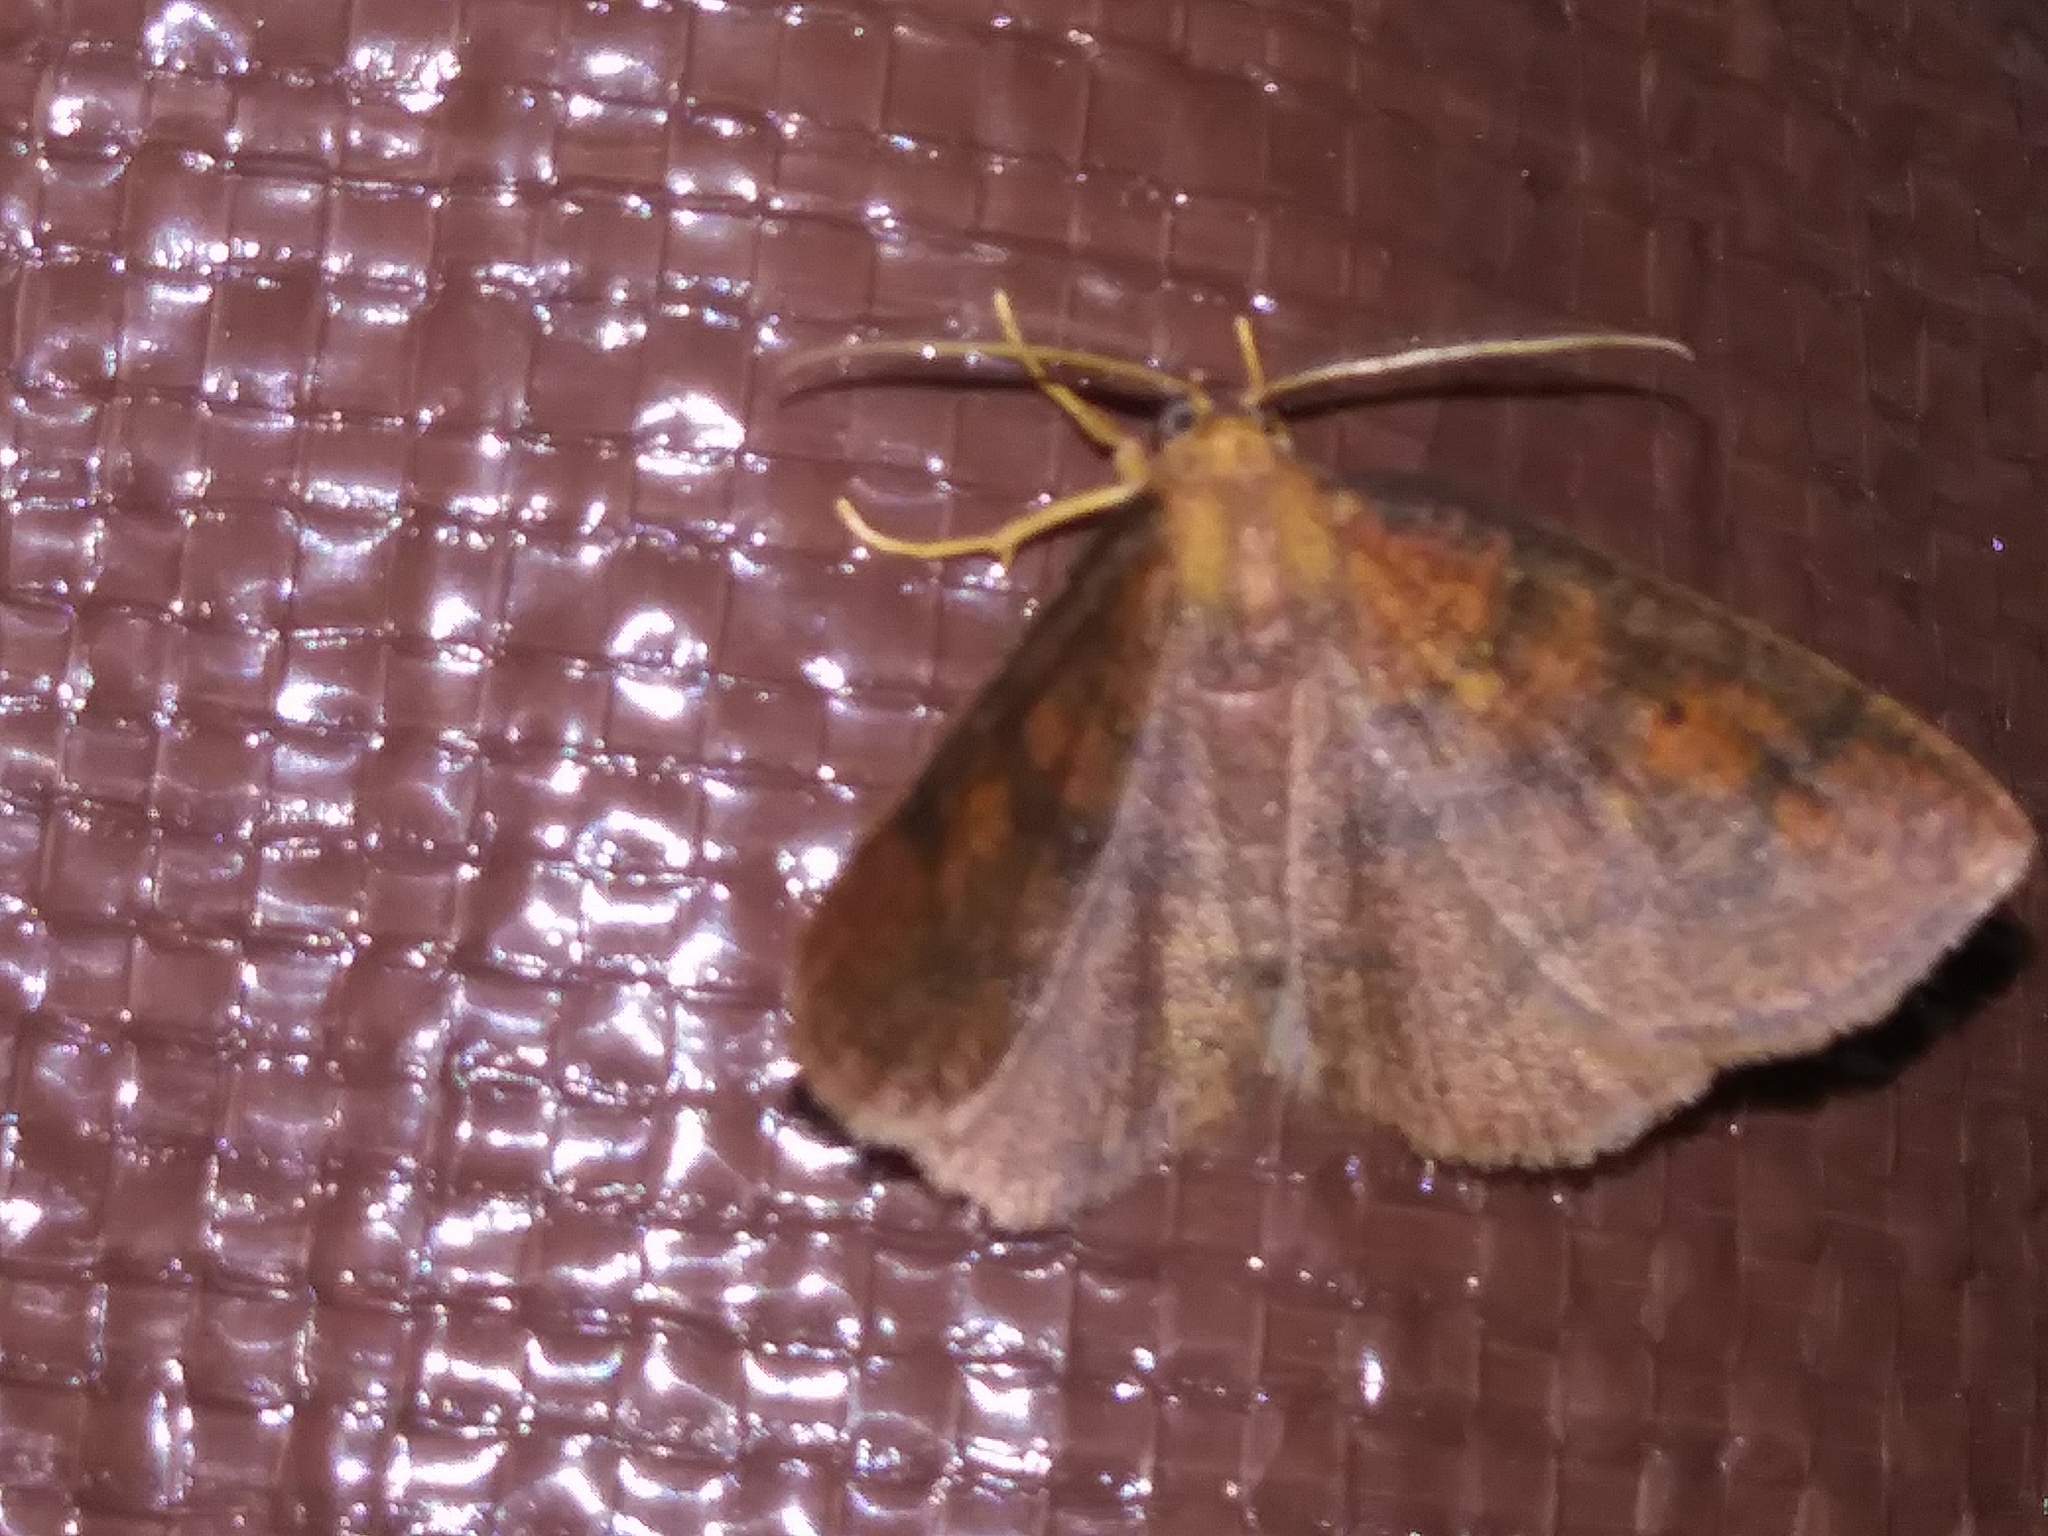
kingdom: Animalia
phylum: Arthropoda
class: Insecta
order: Lepidoptera
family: Geometridae
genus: Ilexia
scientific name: Ilexia intractata
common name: Black-dotted ruddy moth
